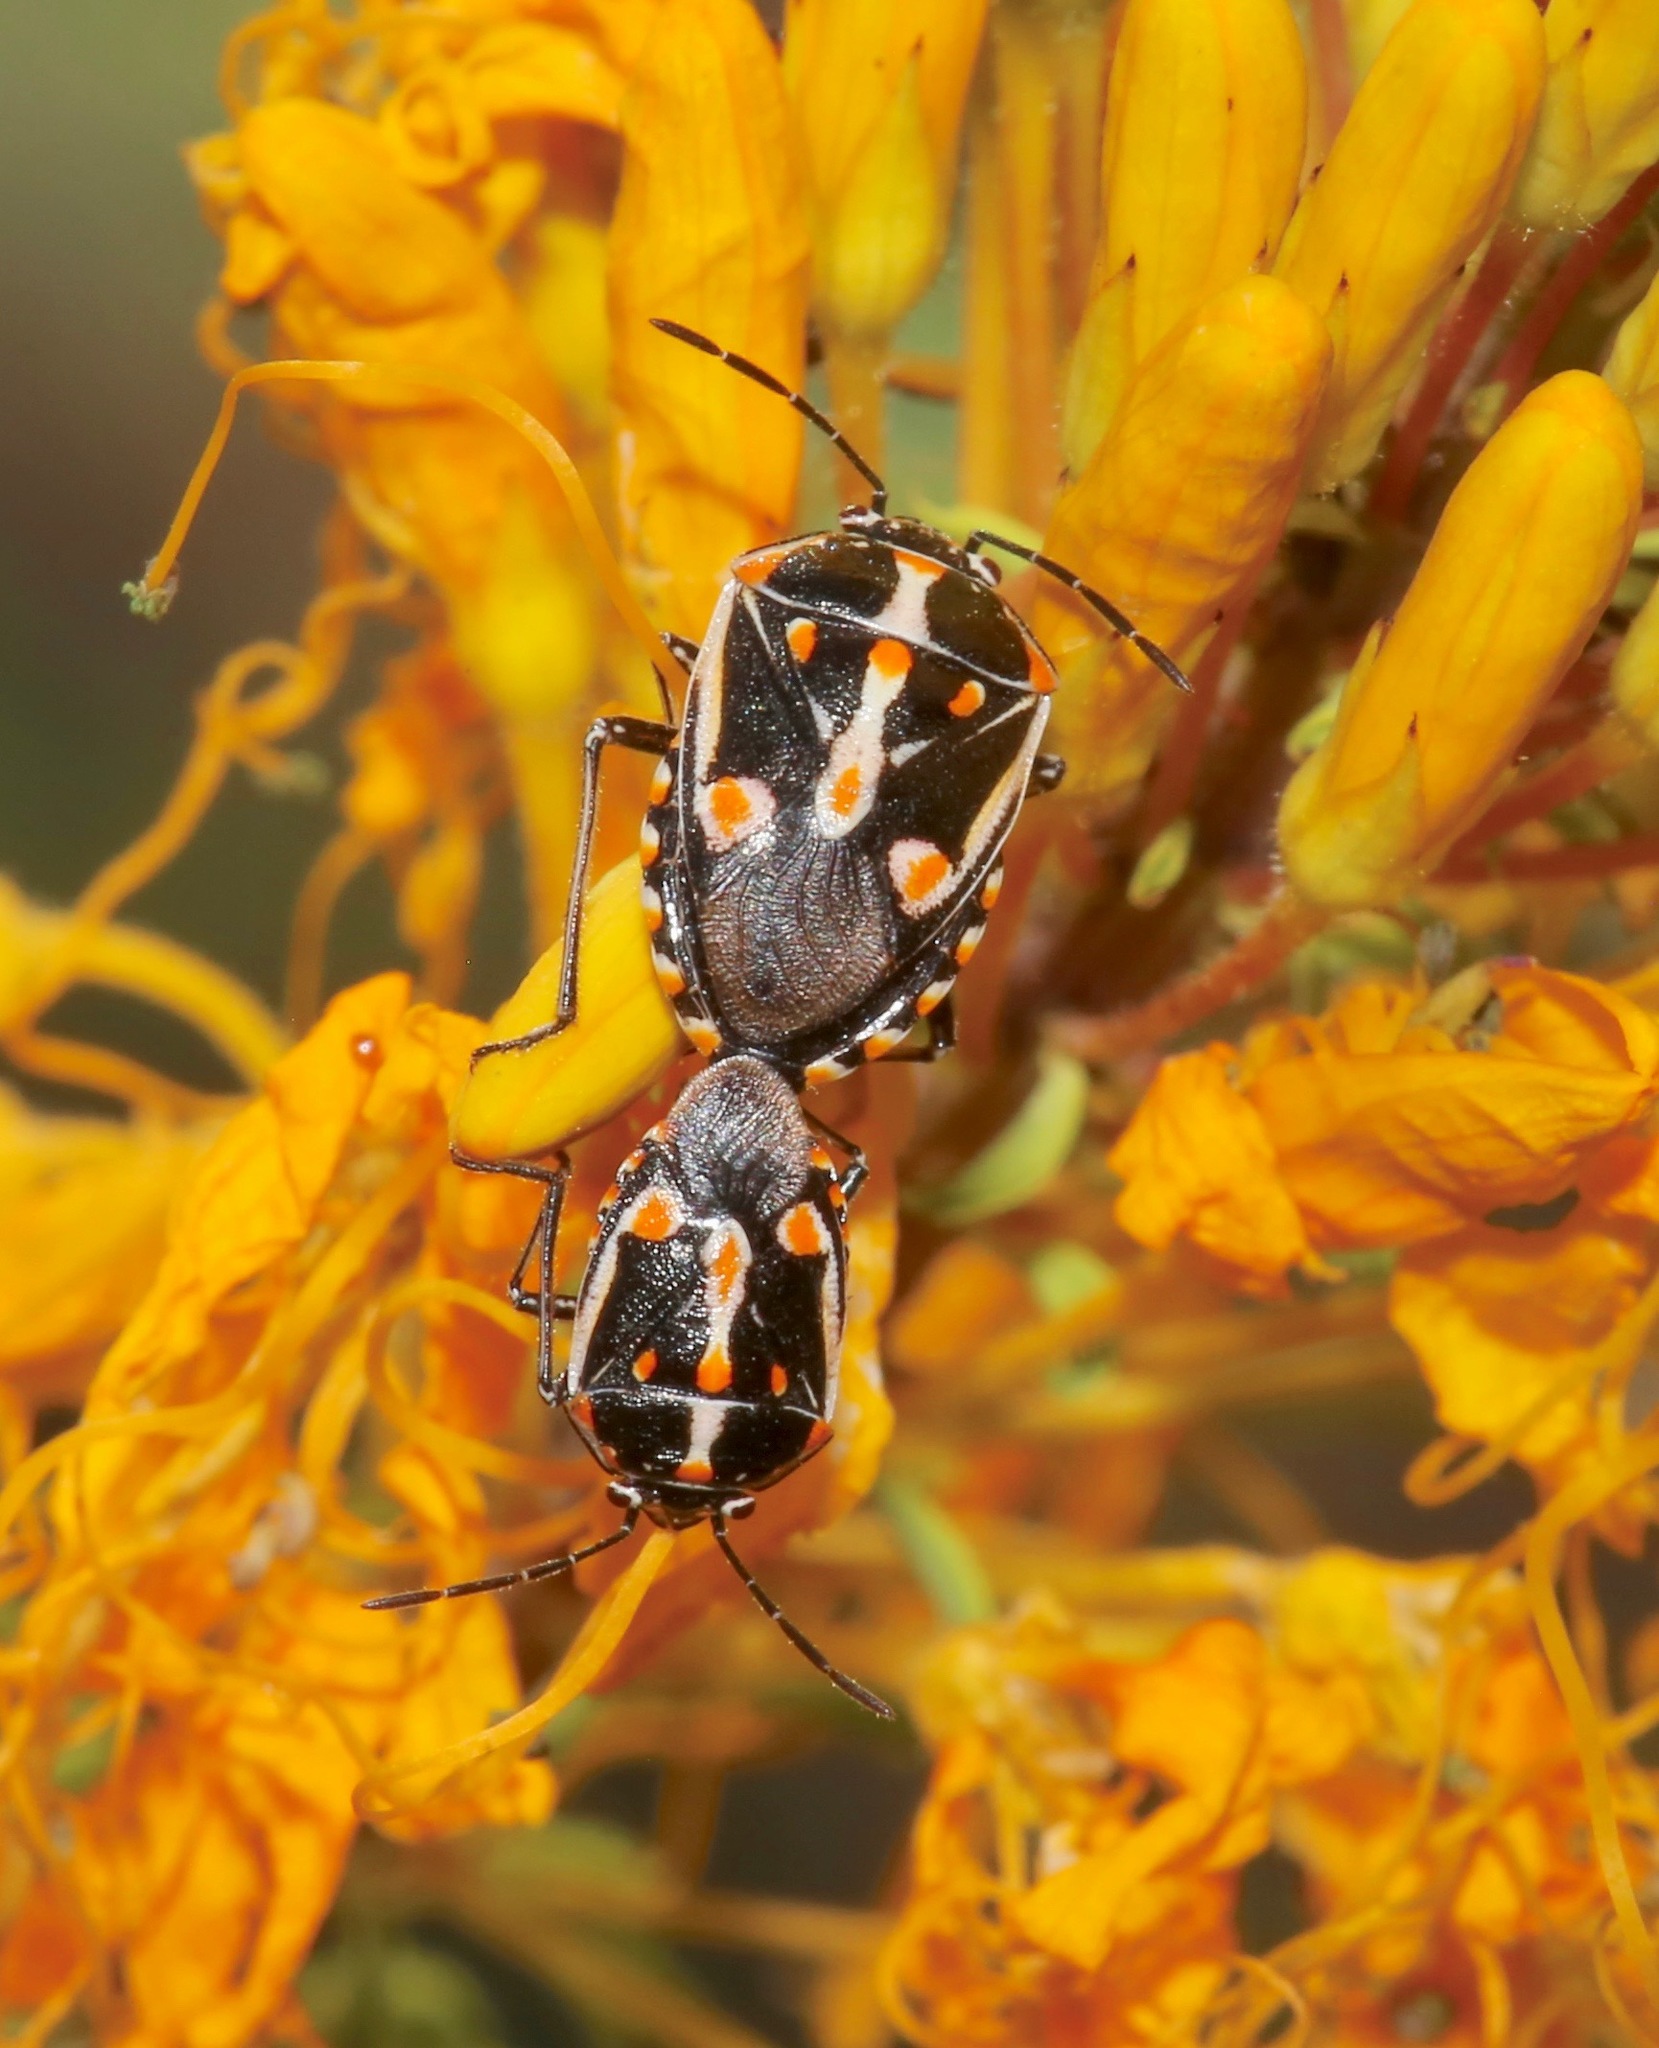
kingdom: Animalia
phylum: Arthropoda
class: Insecta
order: Hemiptera
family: Pentatomidae
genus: Bagrada
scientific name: Bagrada hilaris
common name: Bagrada bug
